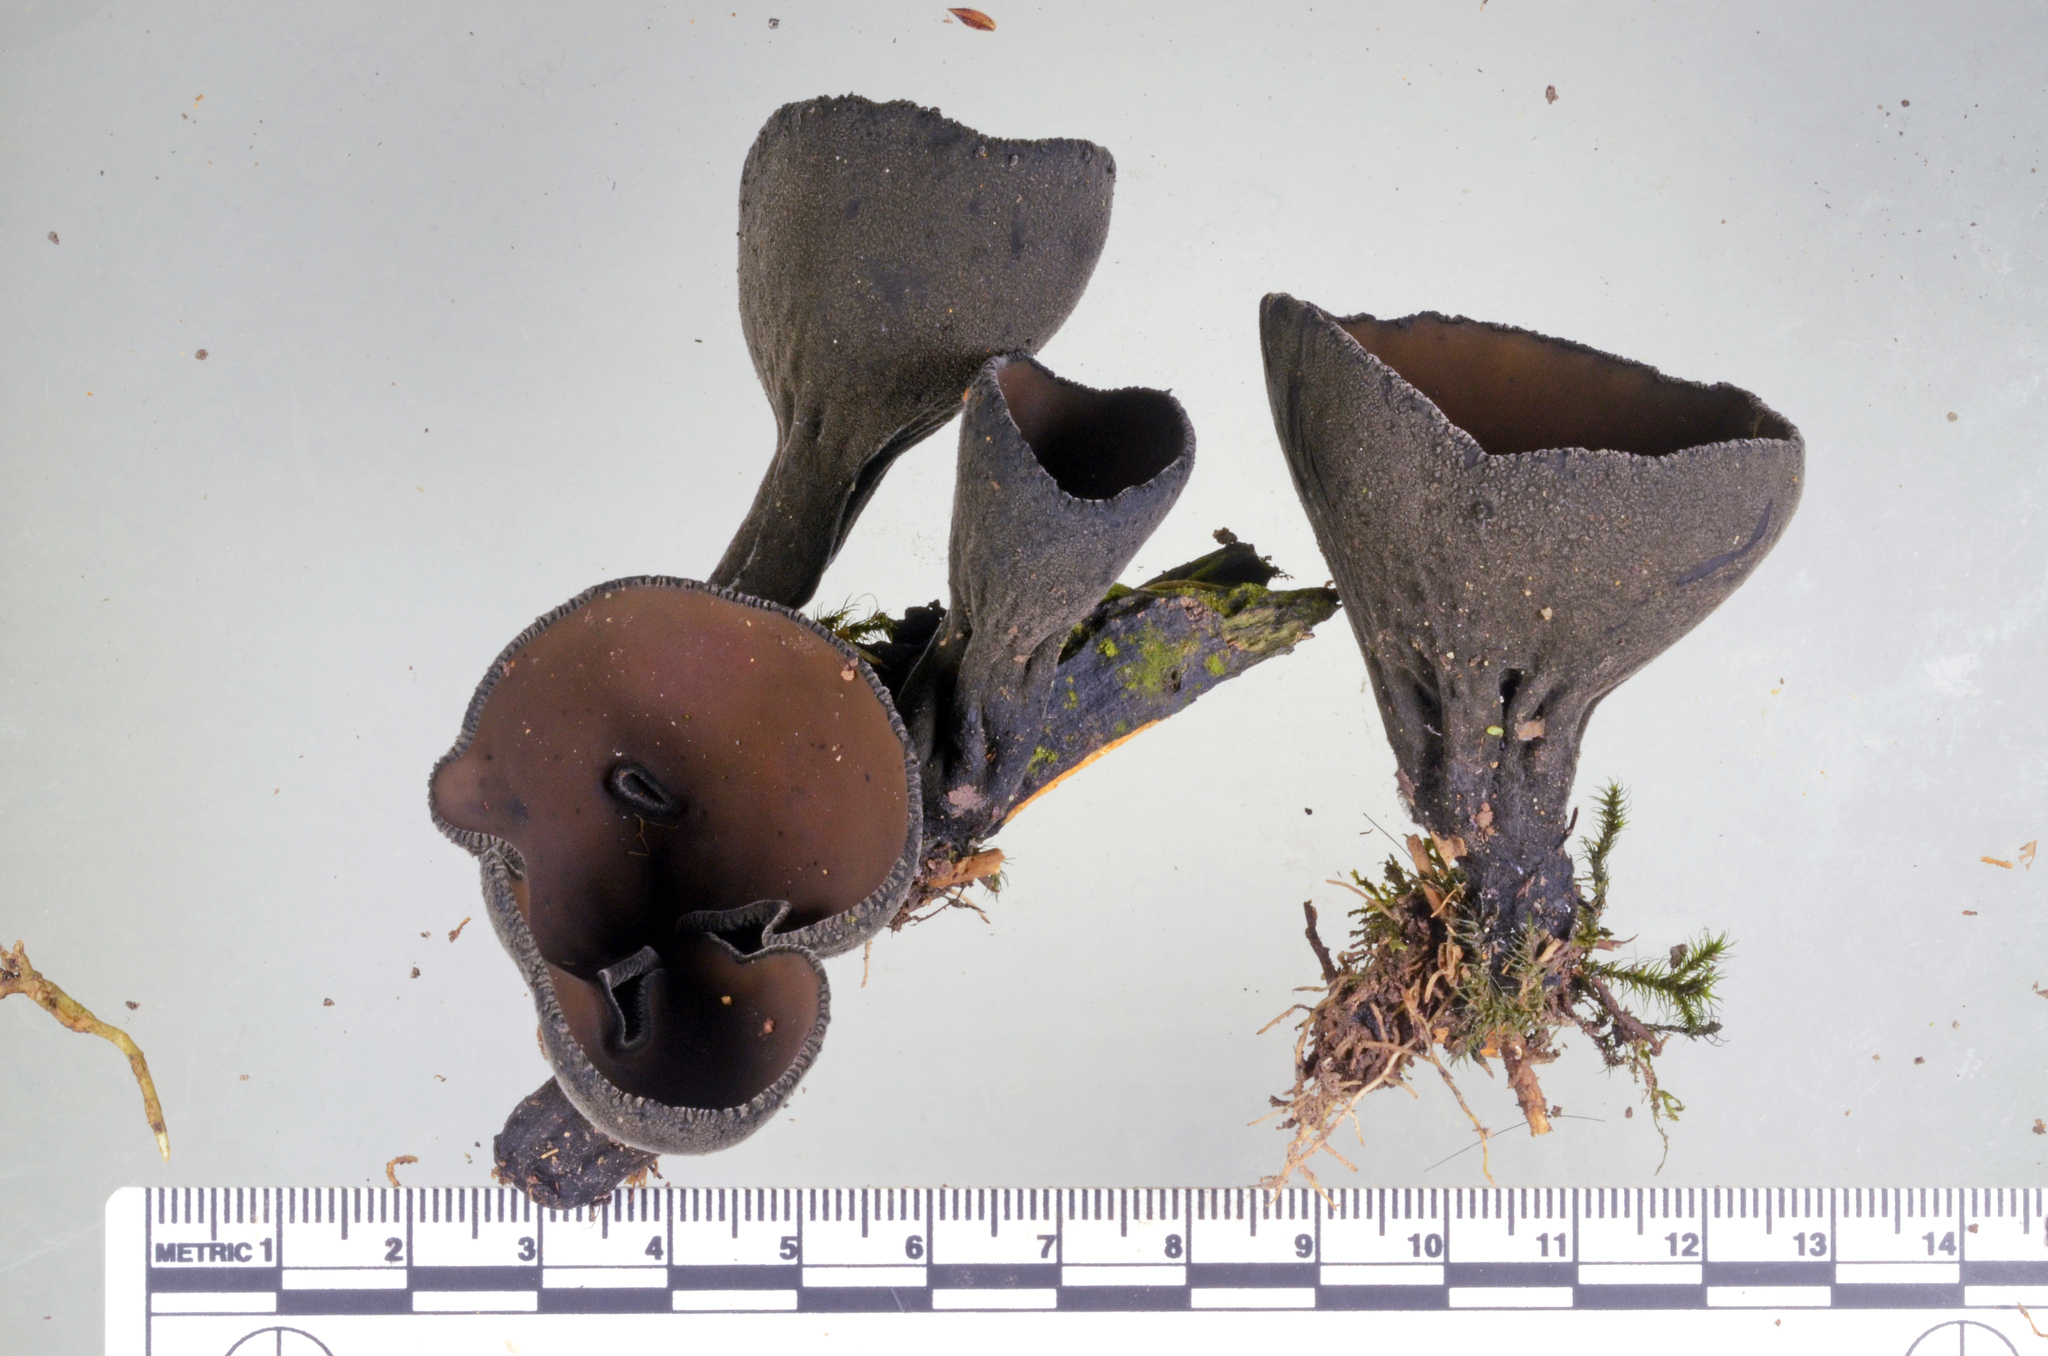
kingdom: Fungi
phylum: Ascomycota
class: Pezizomycetes
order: Pezizales
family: Sarcosomataceae
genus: Plectania
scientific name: Plectania campylospora
